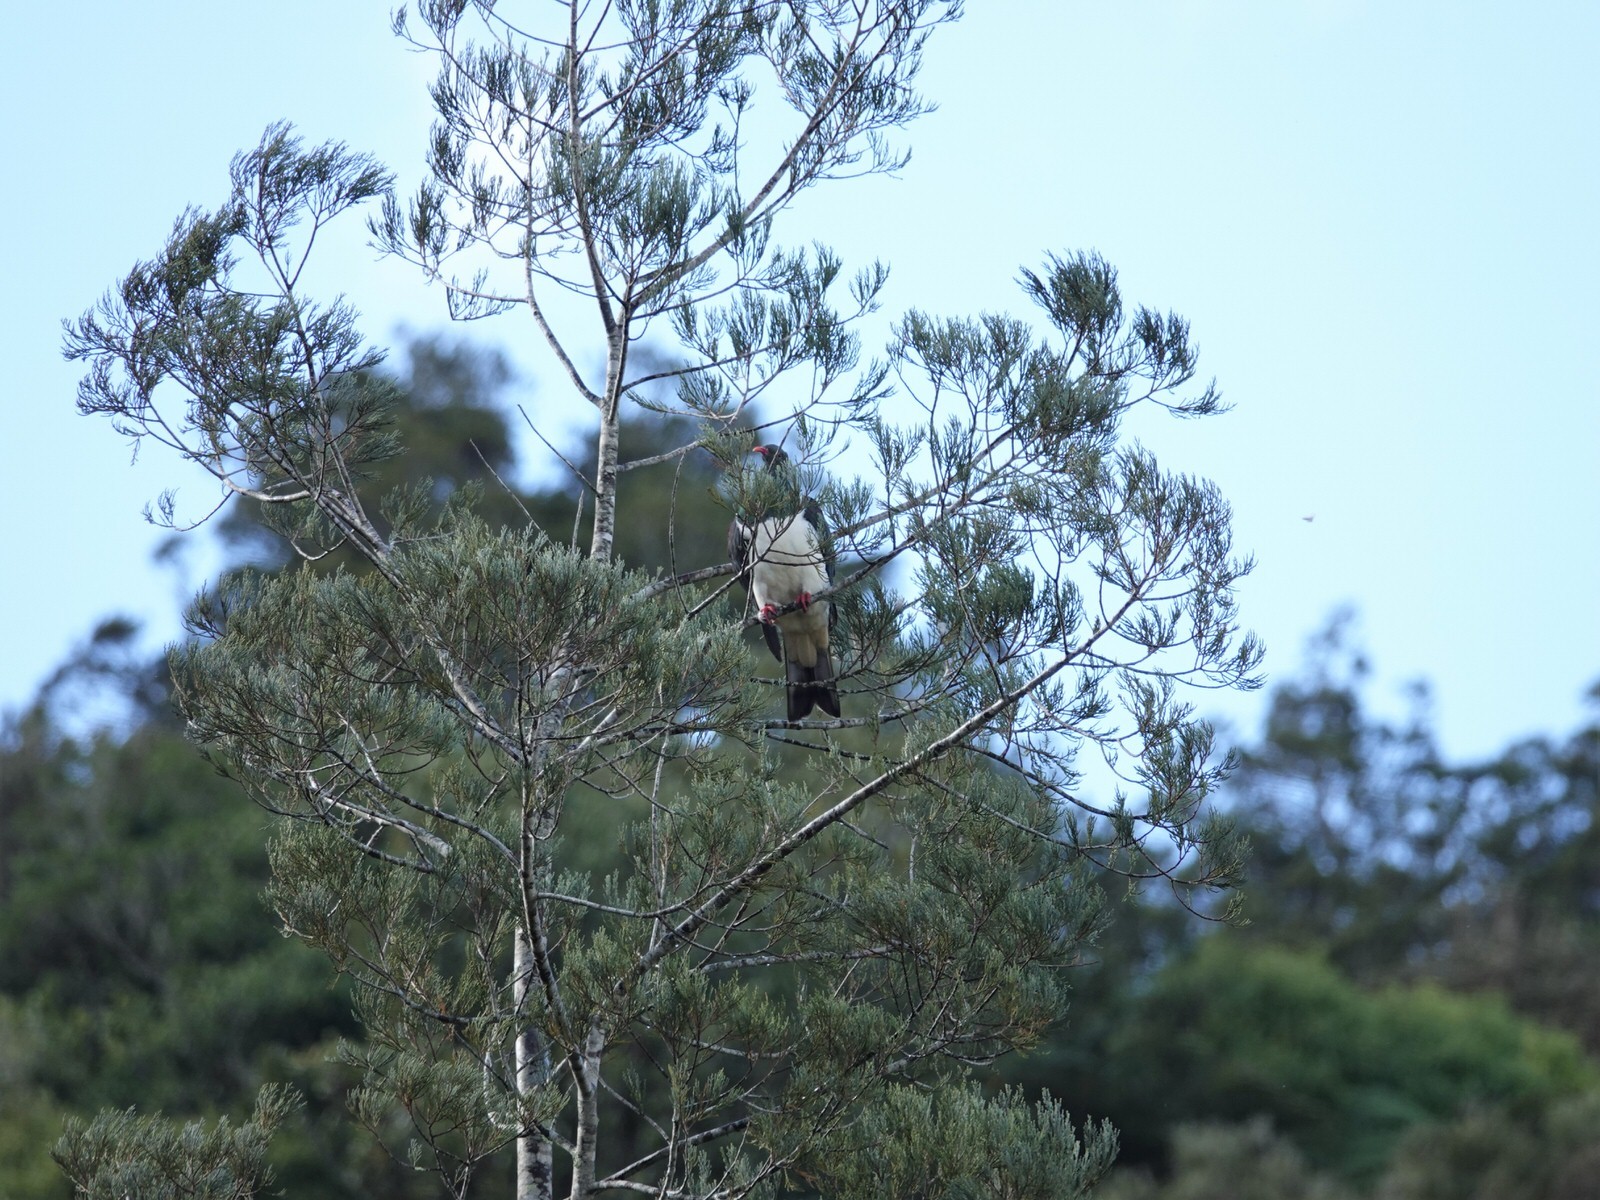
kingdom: Animalia
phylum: Chordata
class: Aves
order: Columbiformes
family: Columbidae
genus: Hemiphaga
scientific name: Hemiphaga novaeseelandiae
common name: New zealand pigeon
